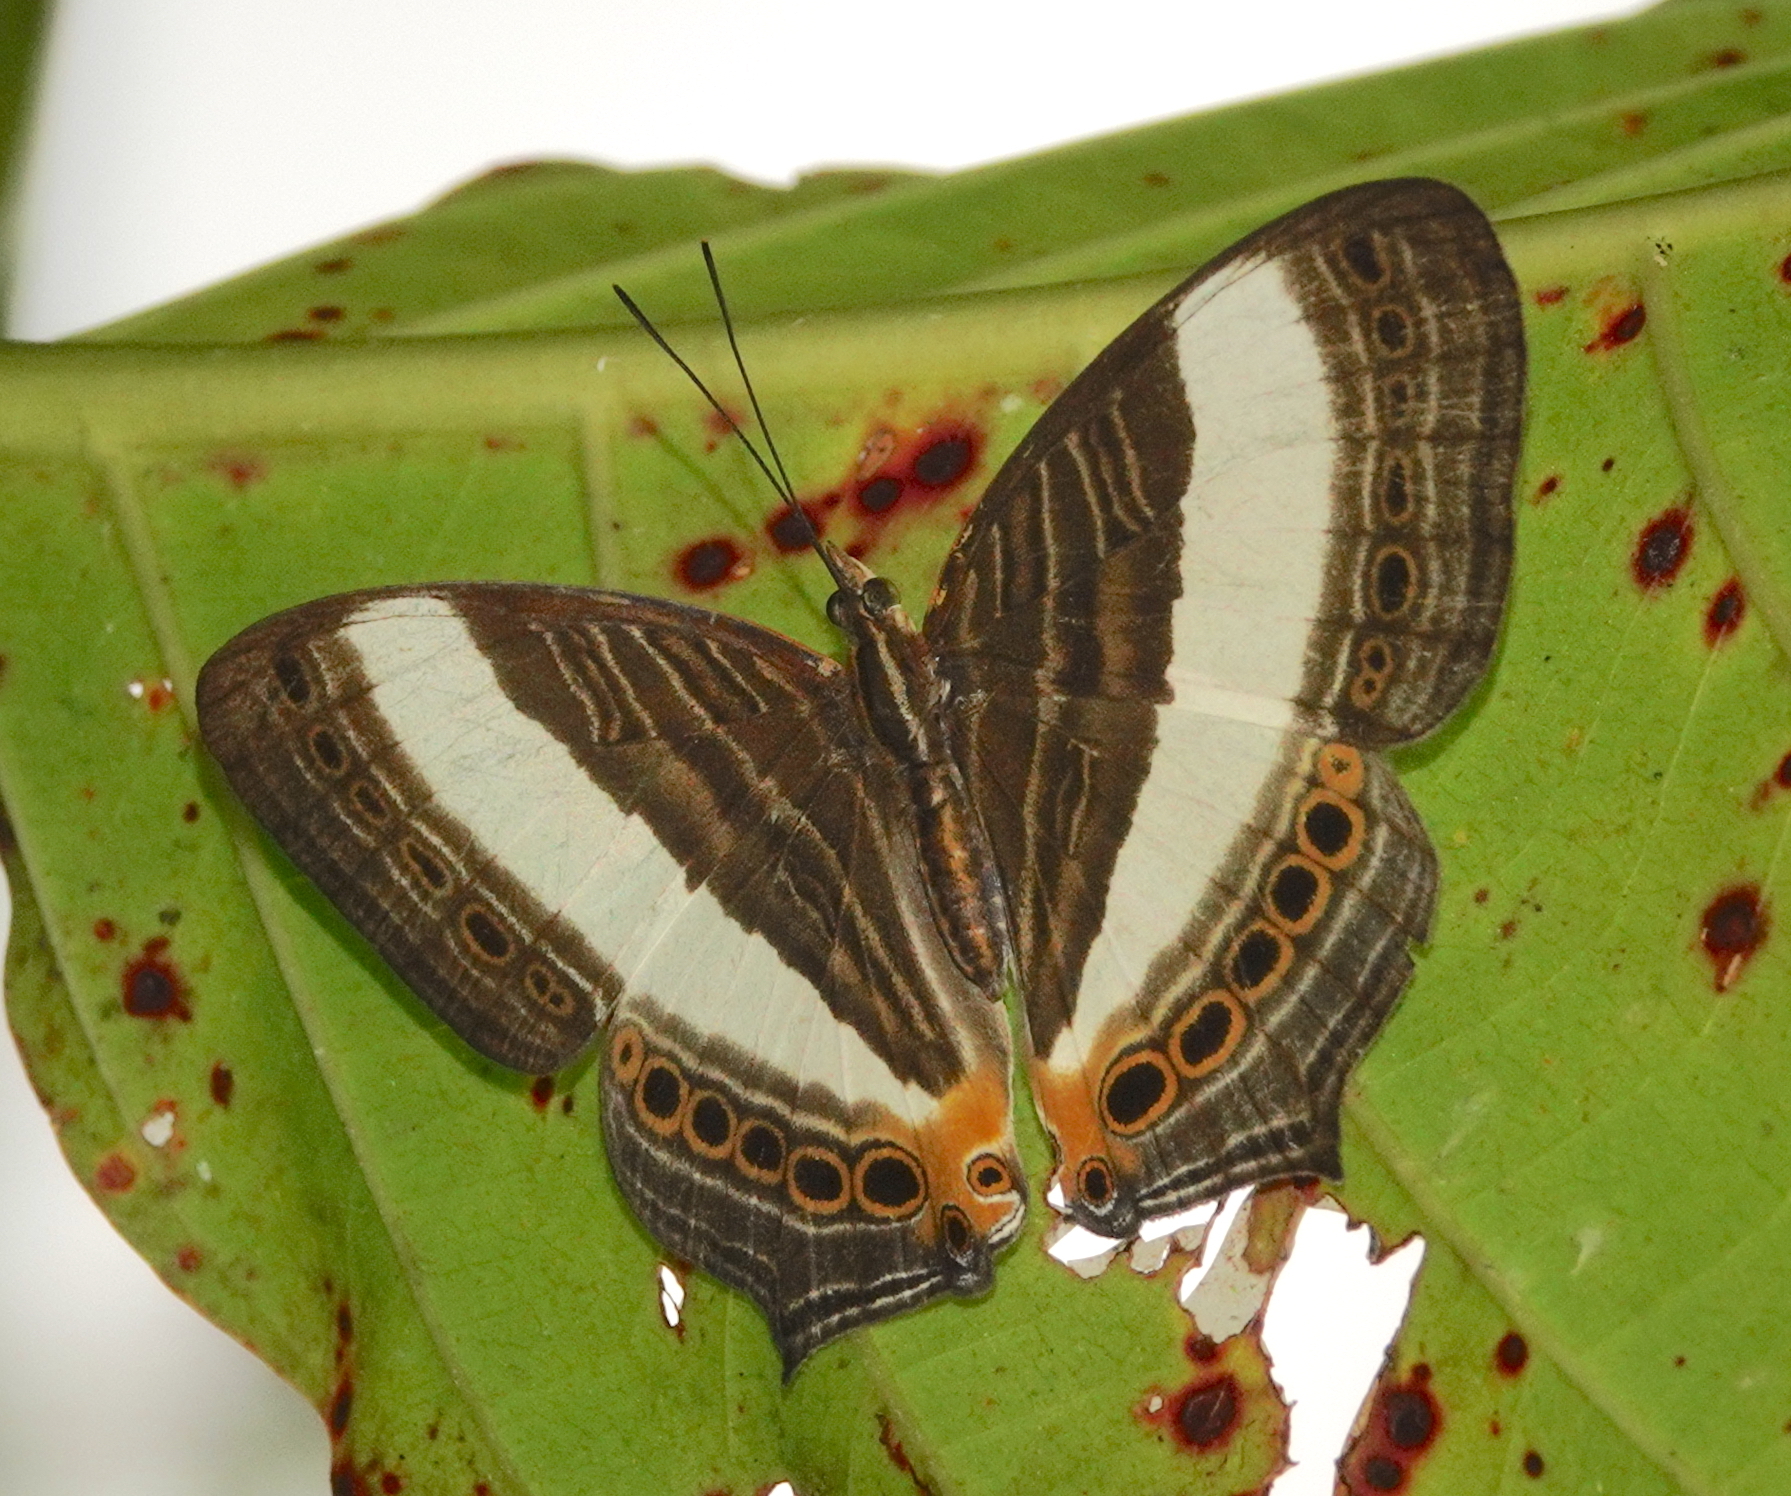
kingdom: Animalia
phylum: Arthropoda
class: Insecta
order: Lepidoptera
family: Nymphalidae
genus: Cyrestis
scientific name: Cyrestis acilia
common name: Godart's map butterfly
